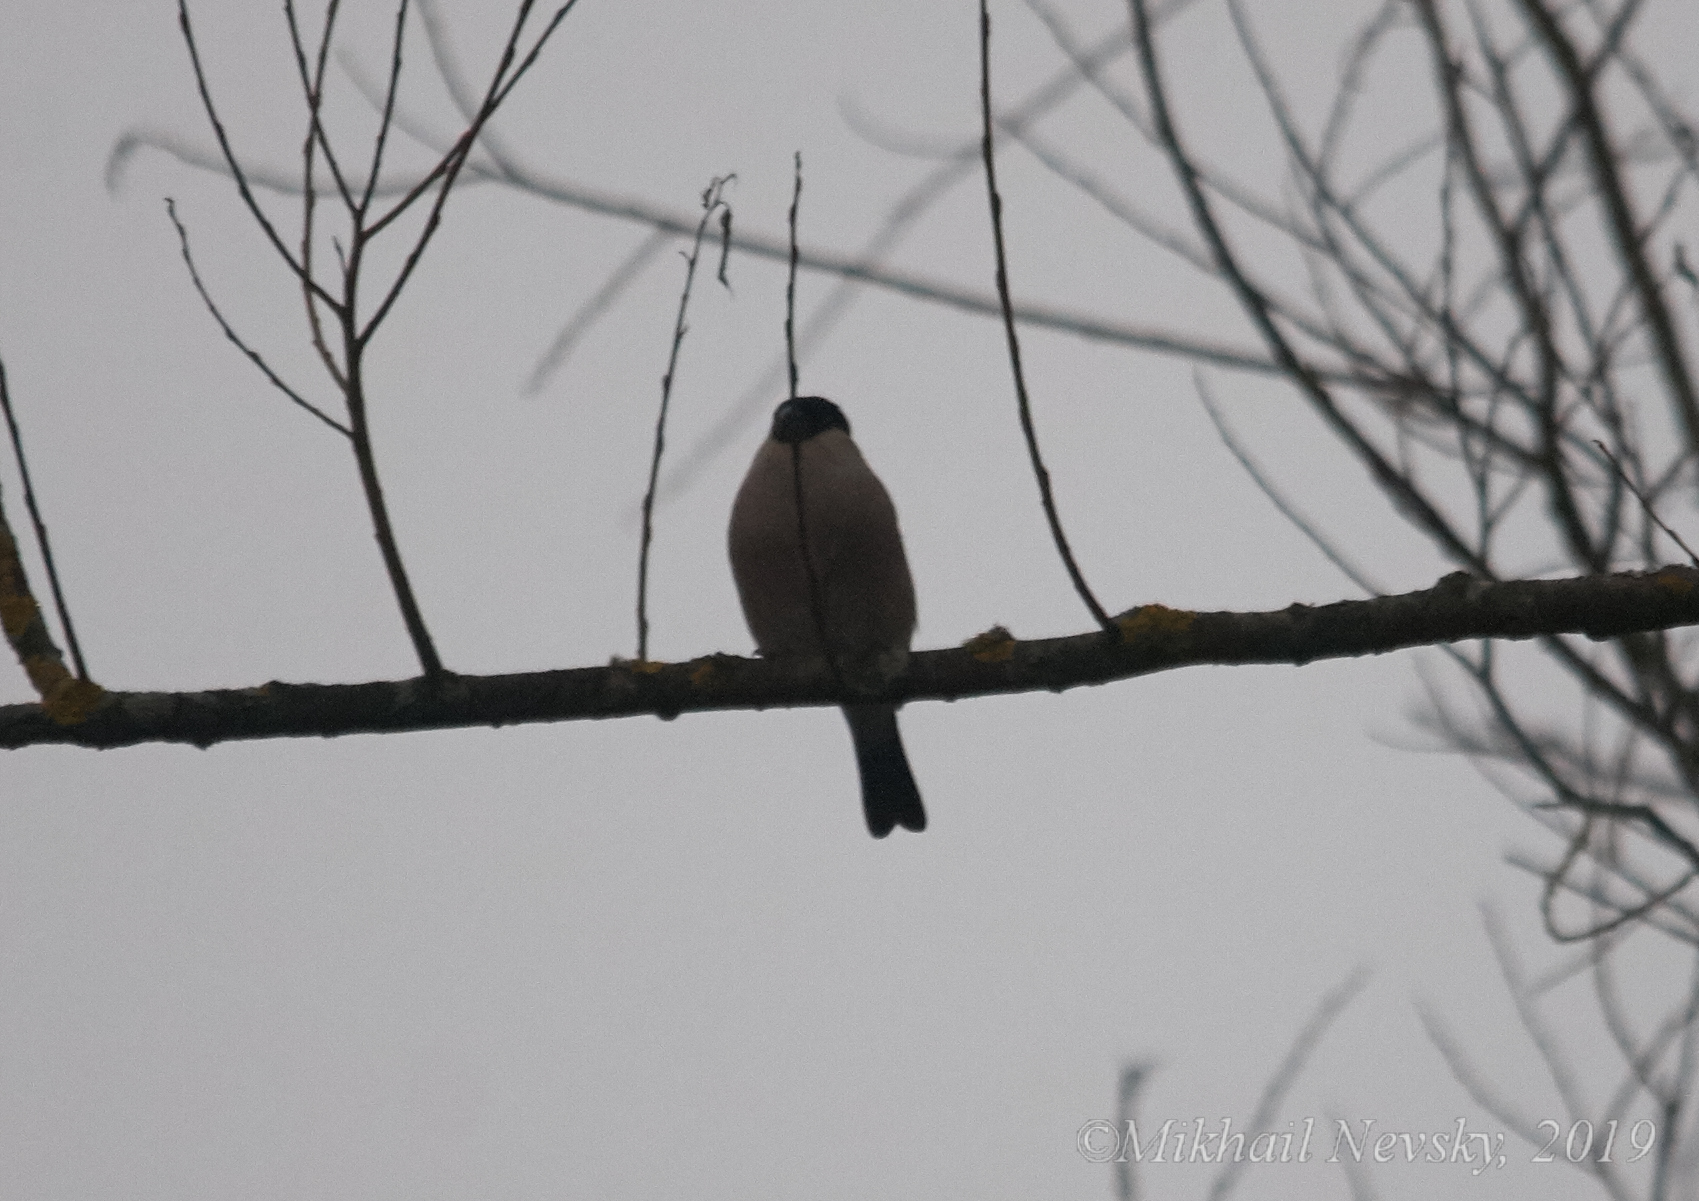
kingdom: Animalia
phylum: Chordata
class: Aves
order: Passeriformes
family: Fringillidae
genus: Pyrrhula
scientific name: Pyrrhula pyrrhula
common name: Eurasian bullfinch
